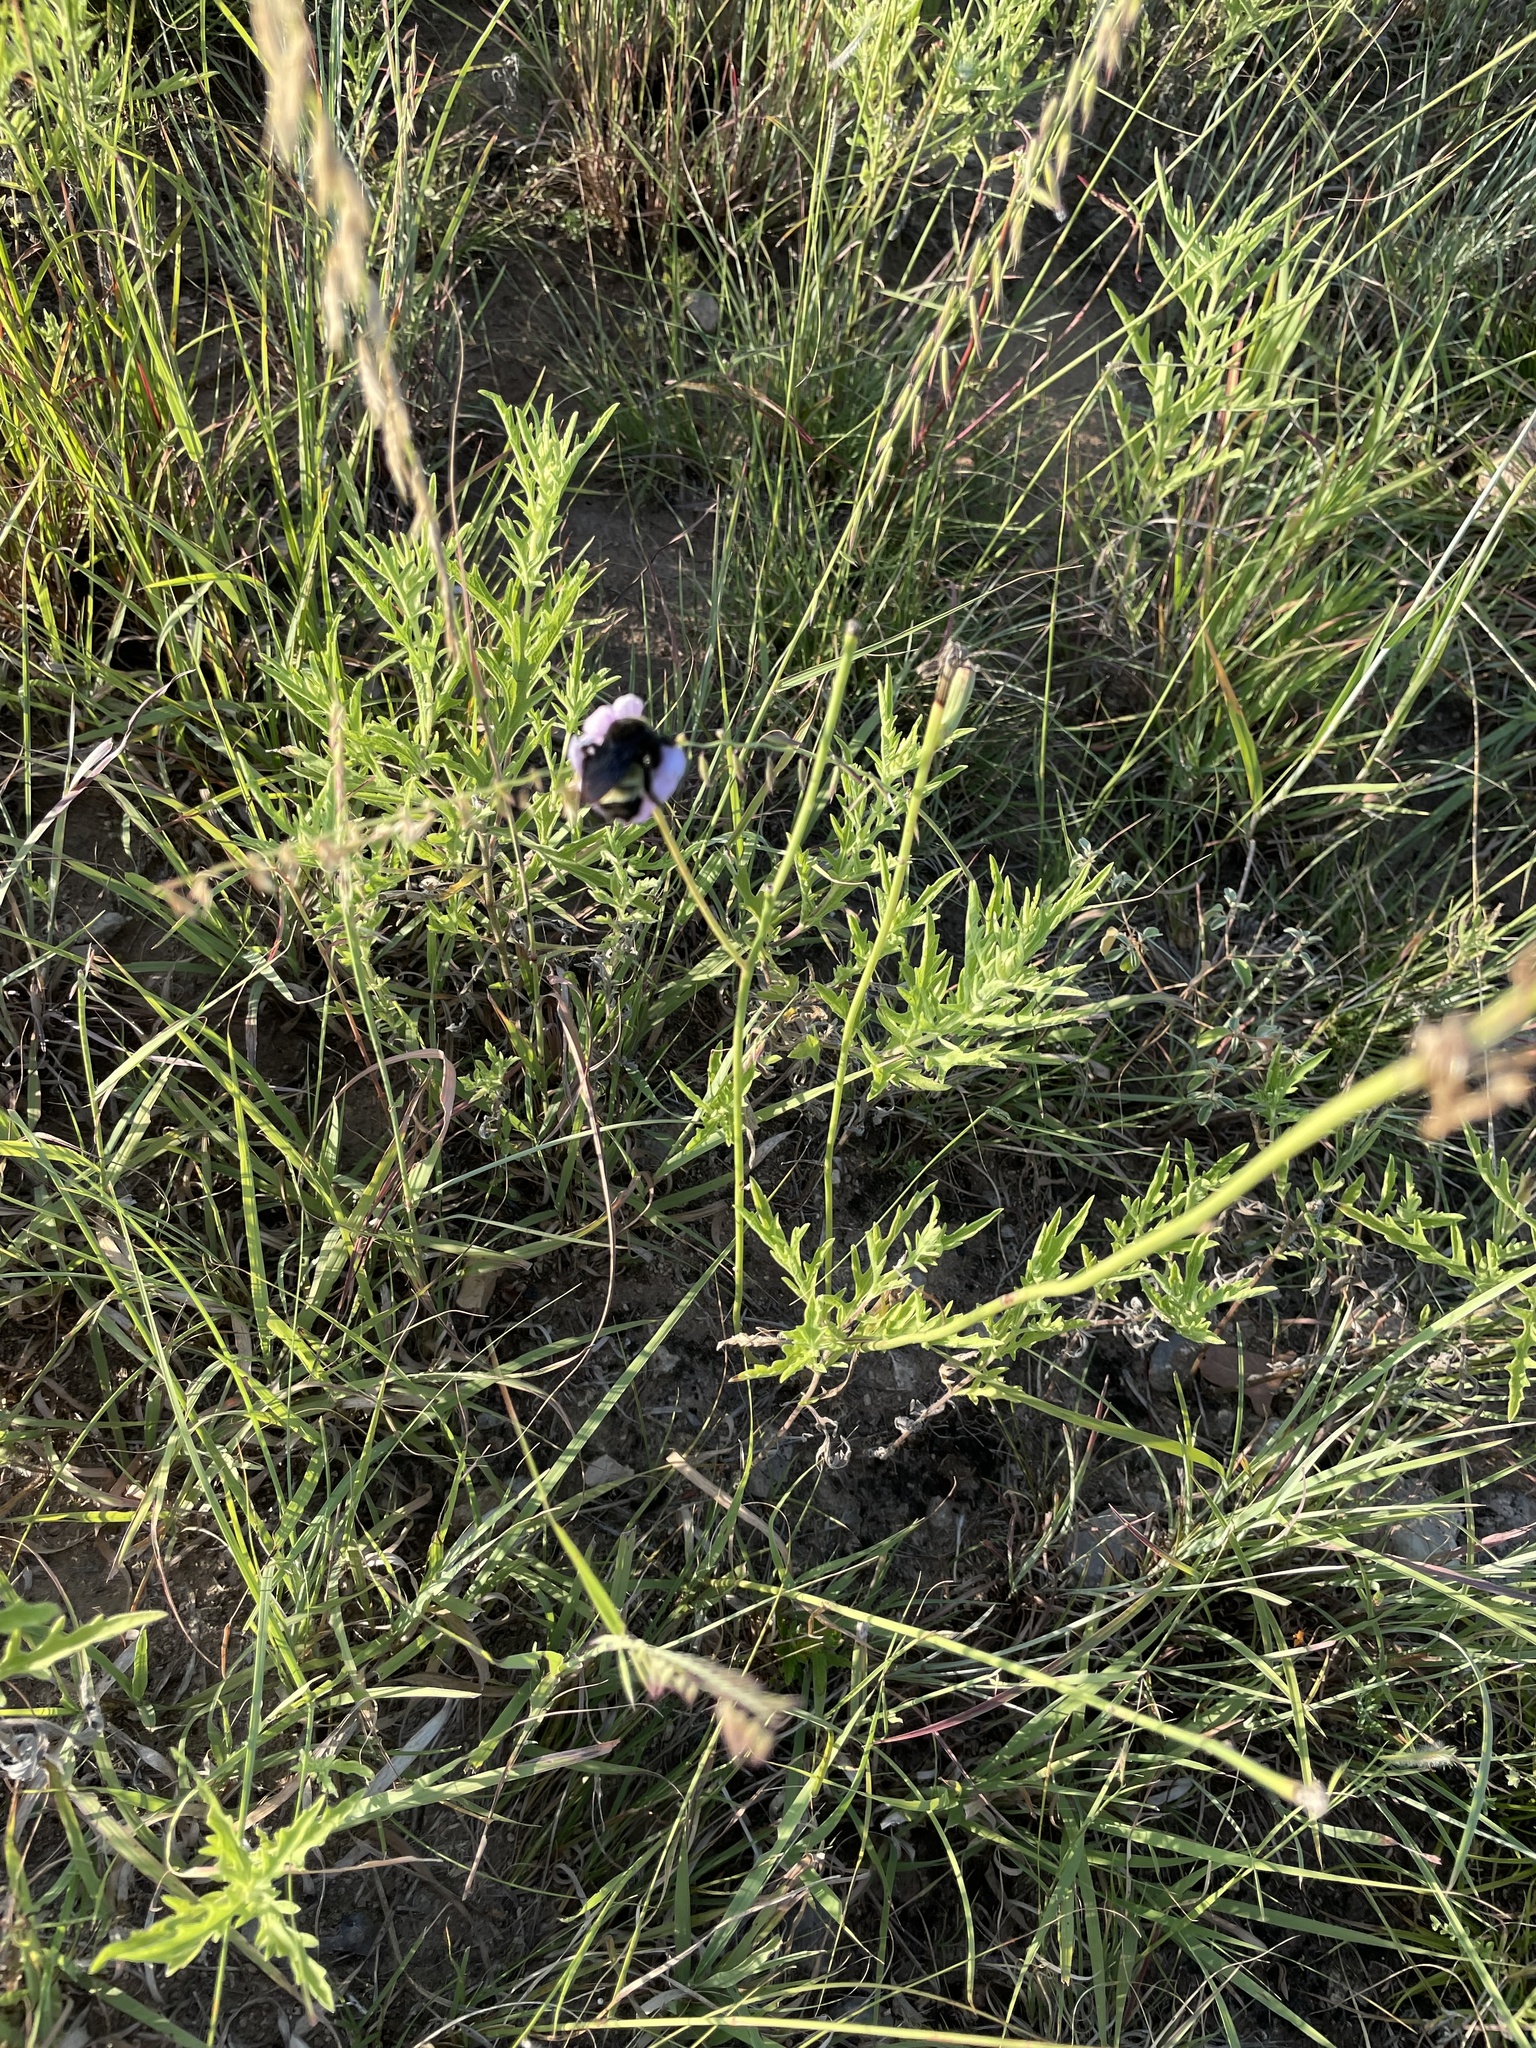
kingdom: Animalia
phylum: Arthropoda
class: Insecta
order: Hymenoptera
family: Apidae
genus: Bombus
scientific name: Bombus pensylvanicus
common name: Bumble bee
